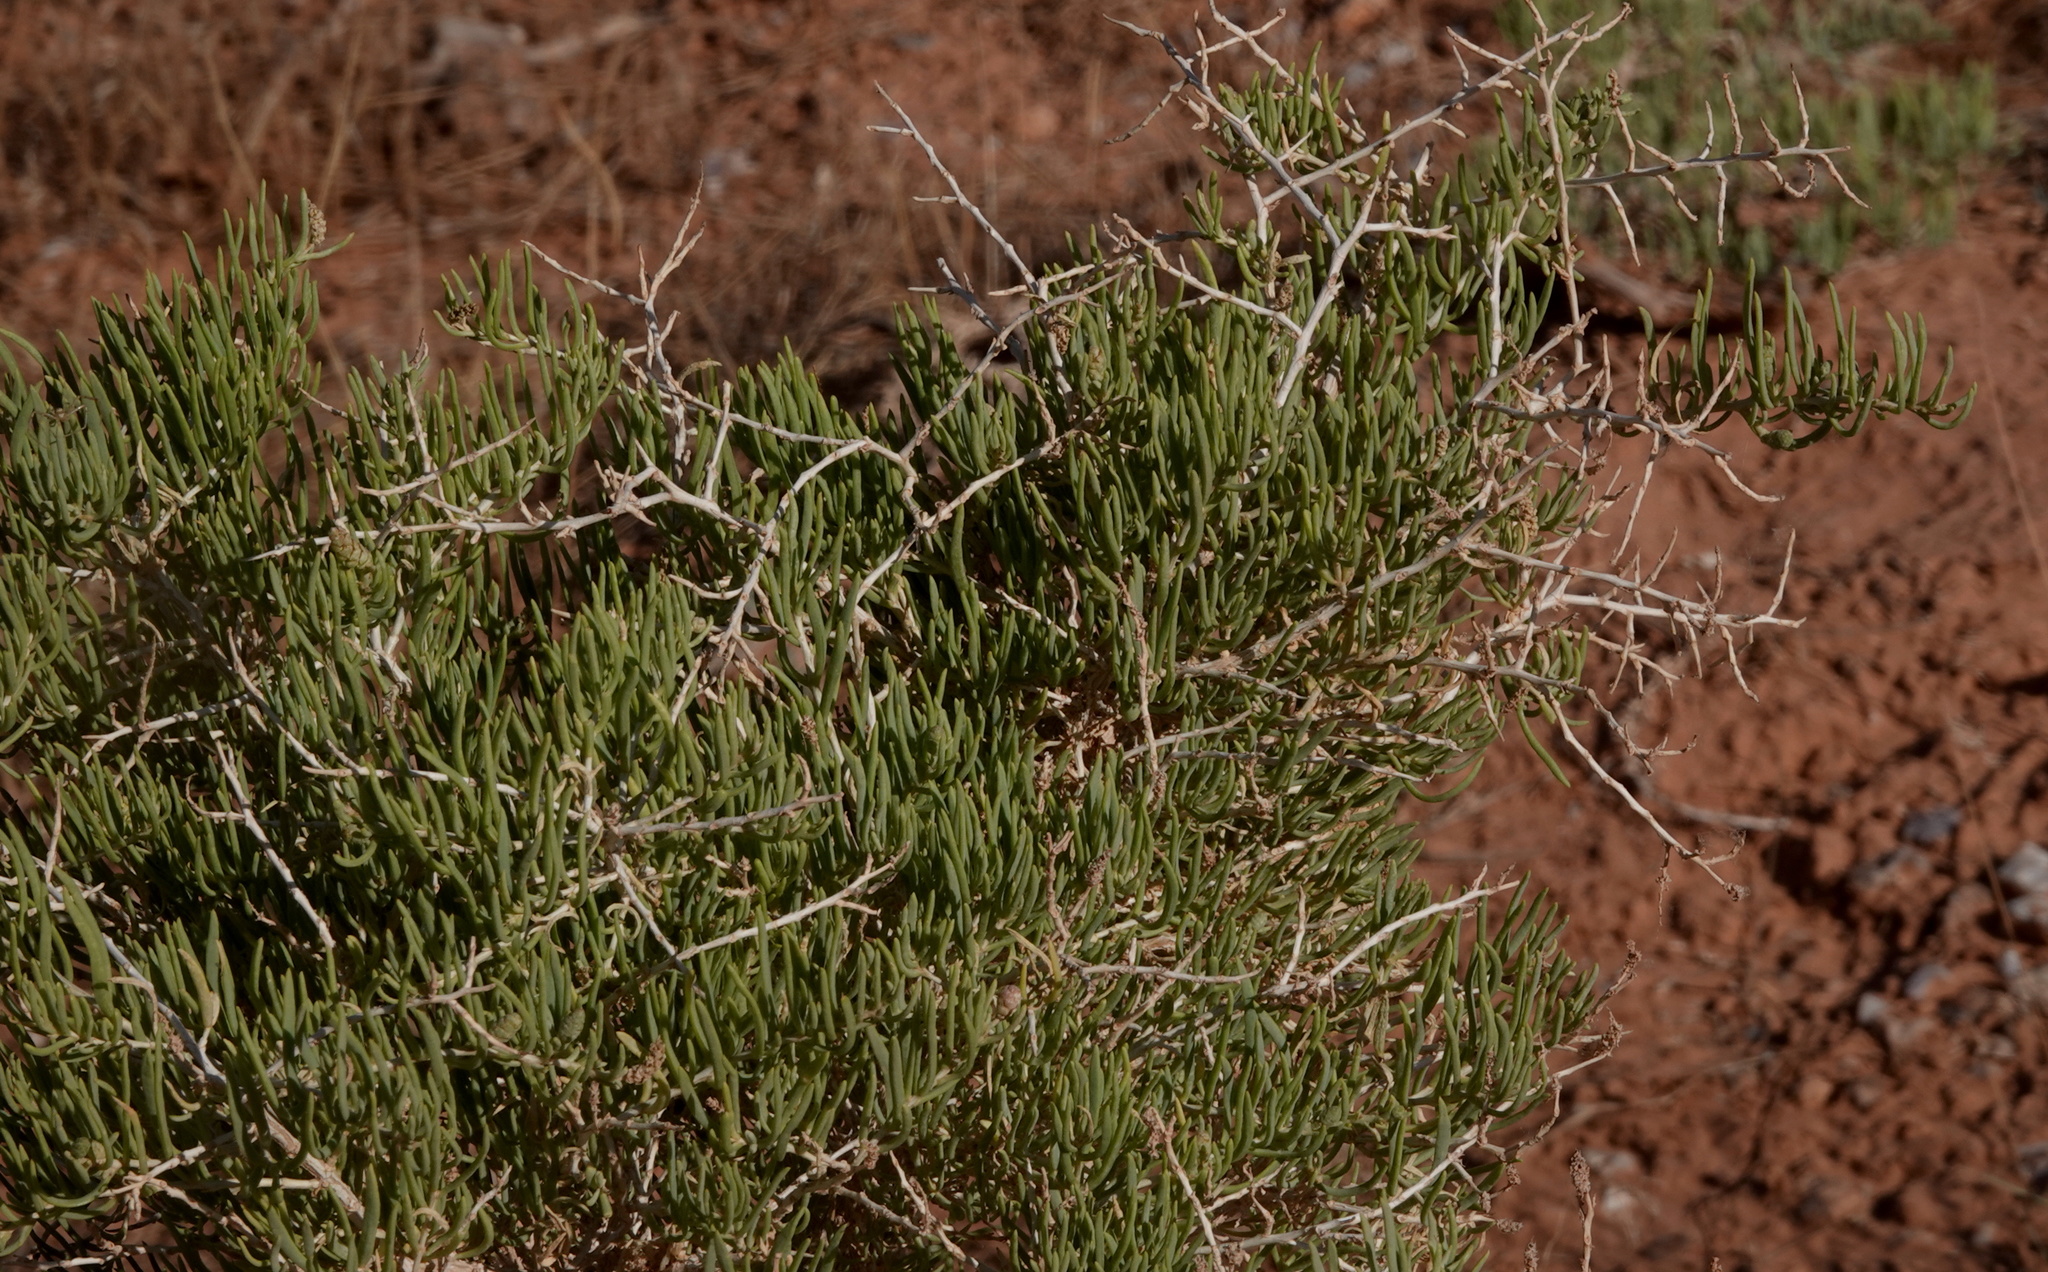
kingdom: Plantae
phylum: Tracheophyta
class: Magnoliopsida
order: Caryophyllales
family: Sarcobataceae
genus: Sarcobatus
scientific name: Sarcobatus vermiculatus
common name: Greasewood
